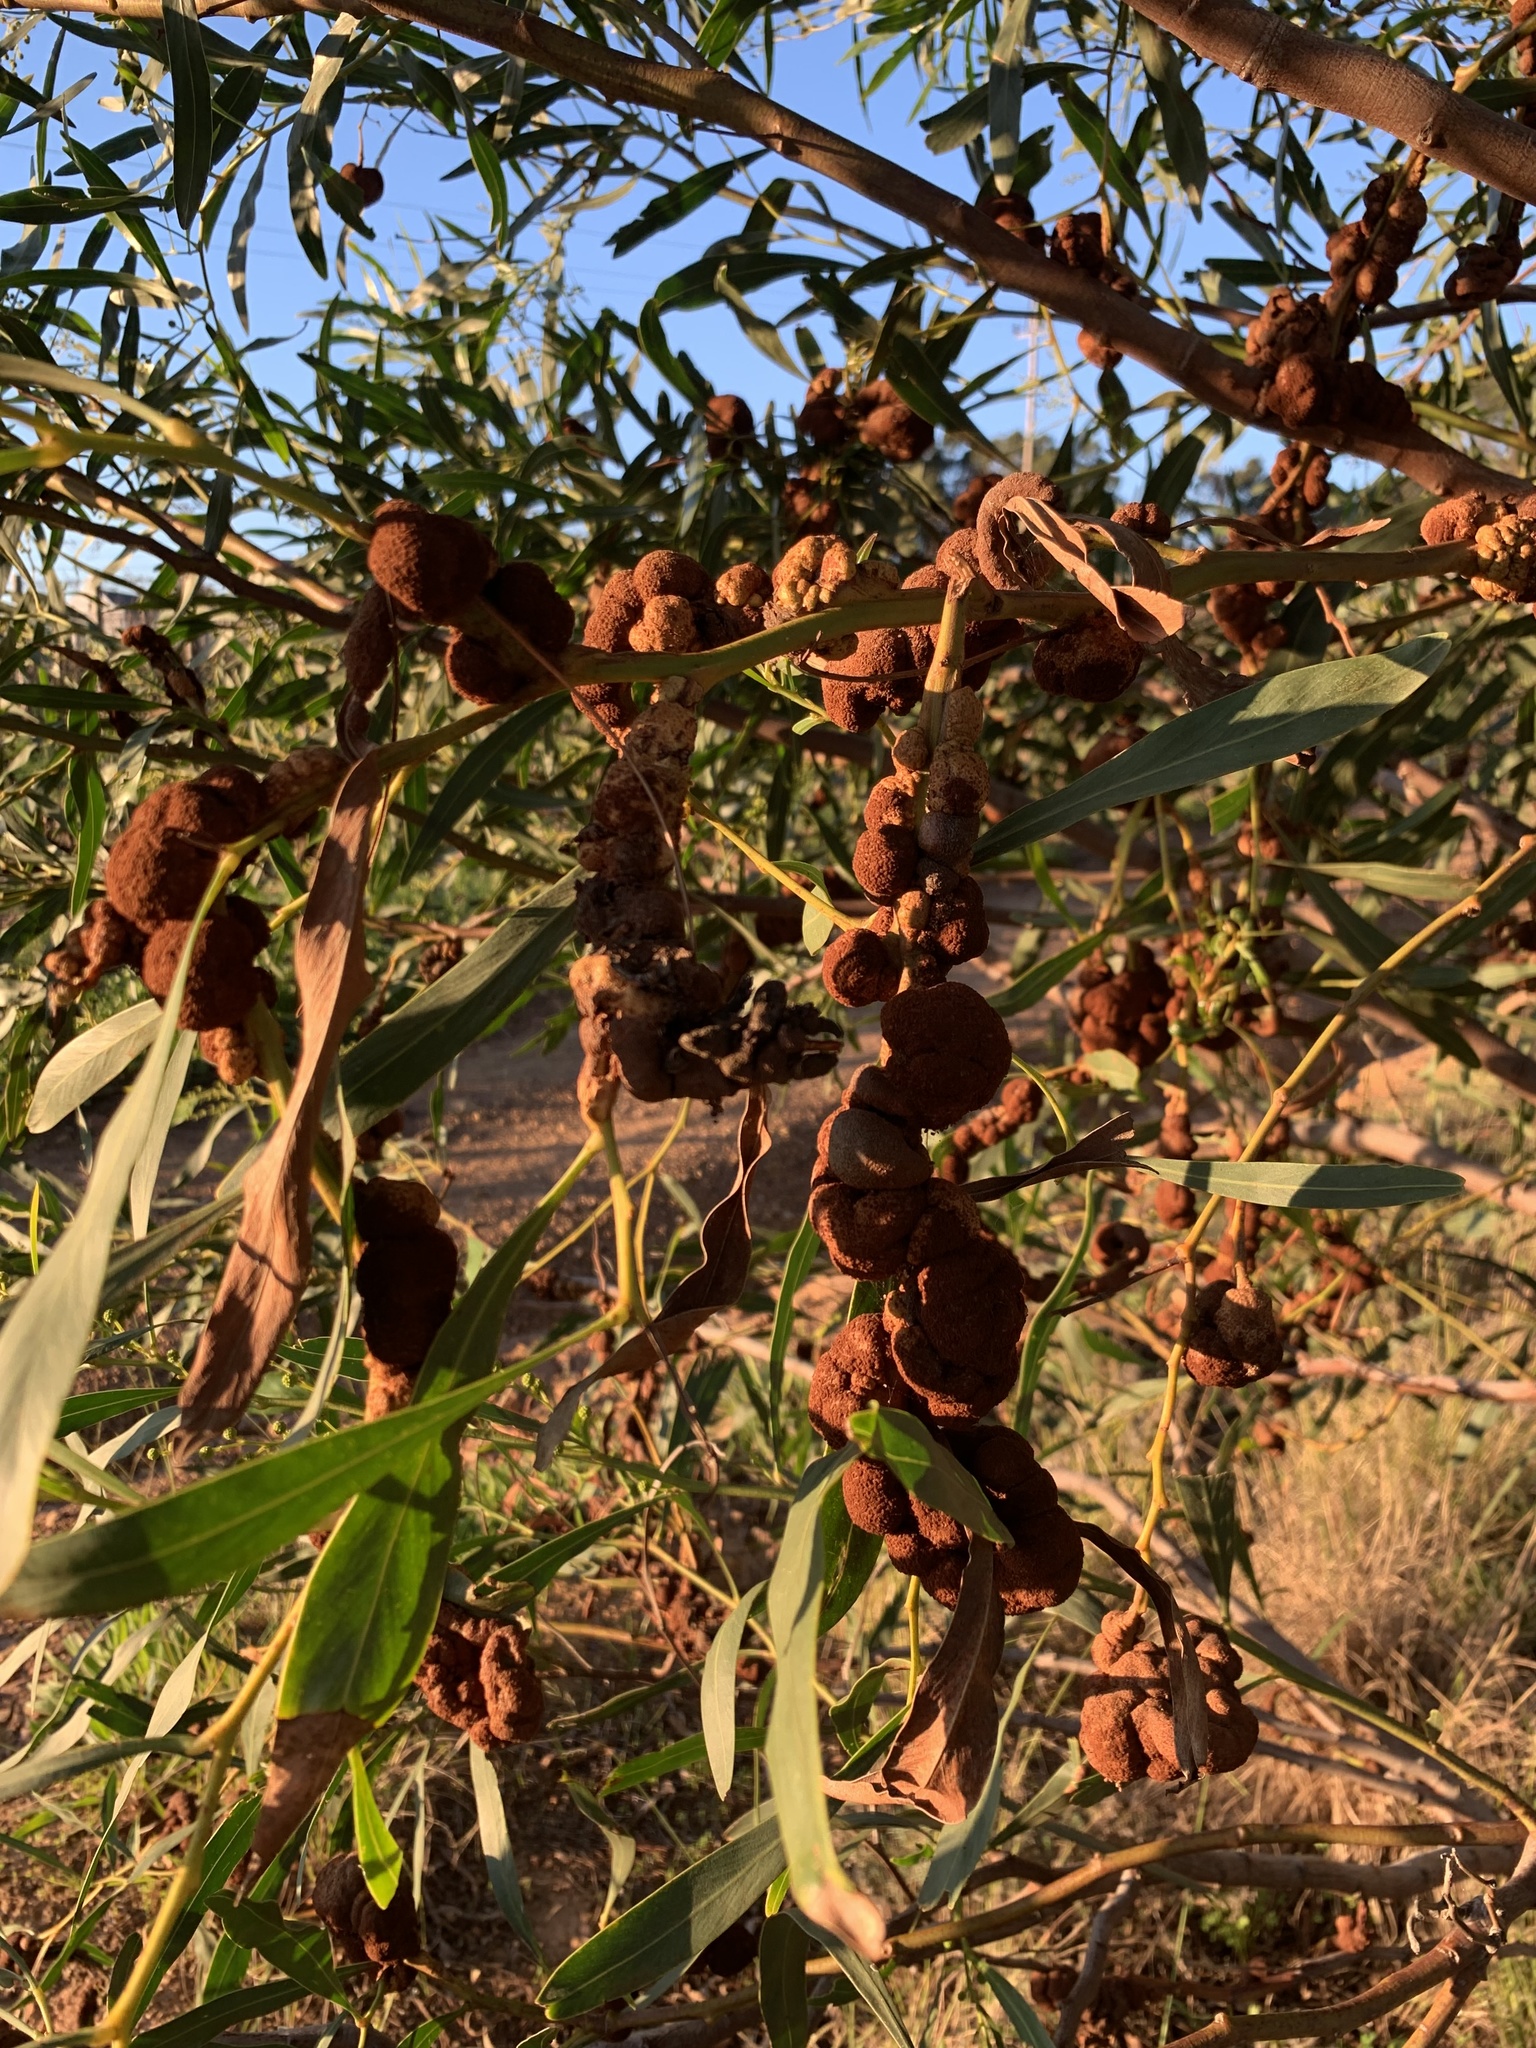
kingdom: Plantae
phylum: Tracheophyta
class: Magnoliopsida
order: Fabales
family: Fabaceae
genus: Acacia
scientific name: Acacia saligna
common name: Orange wattle
